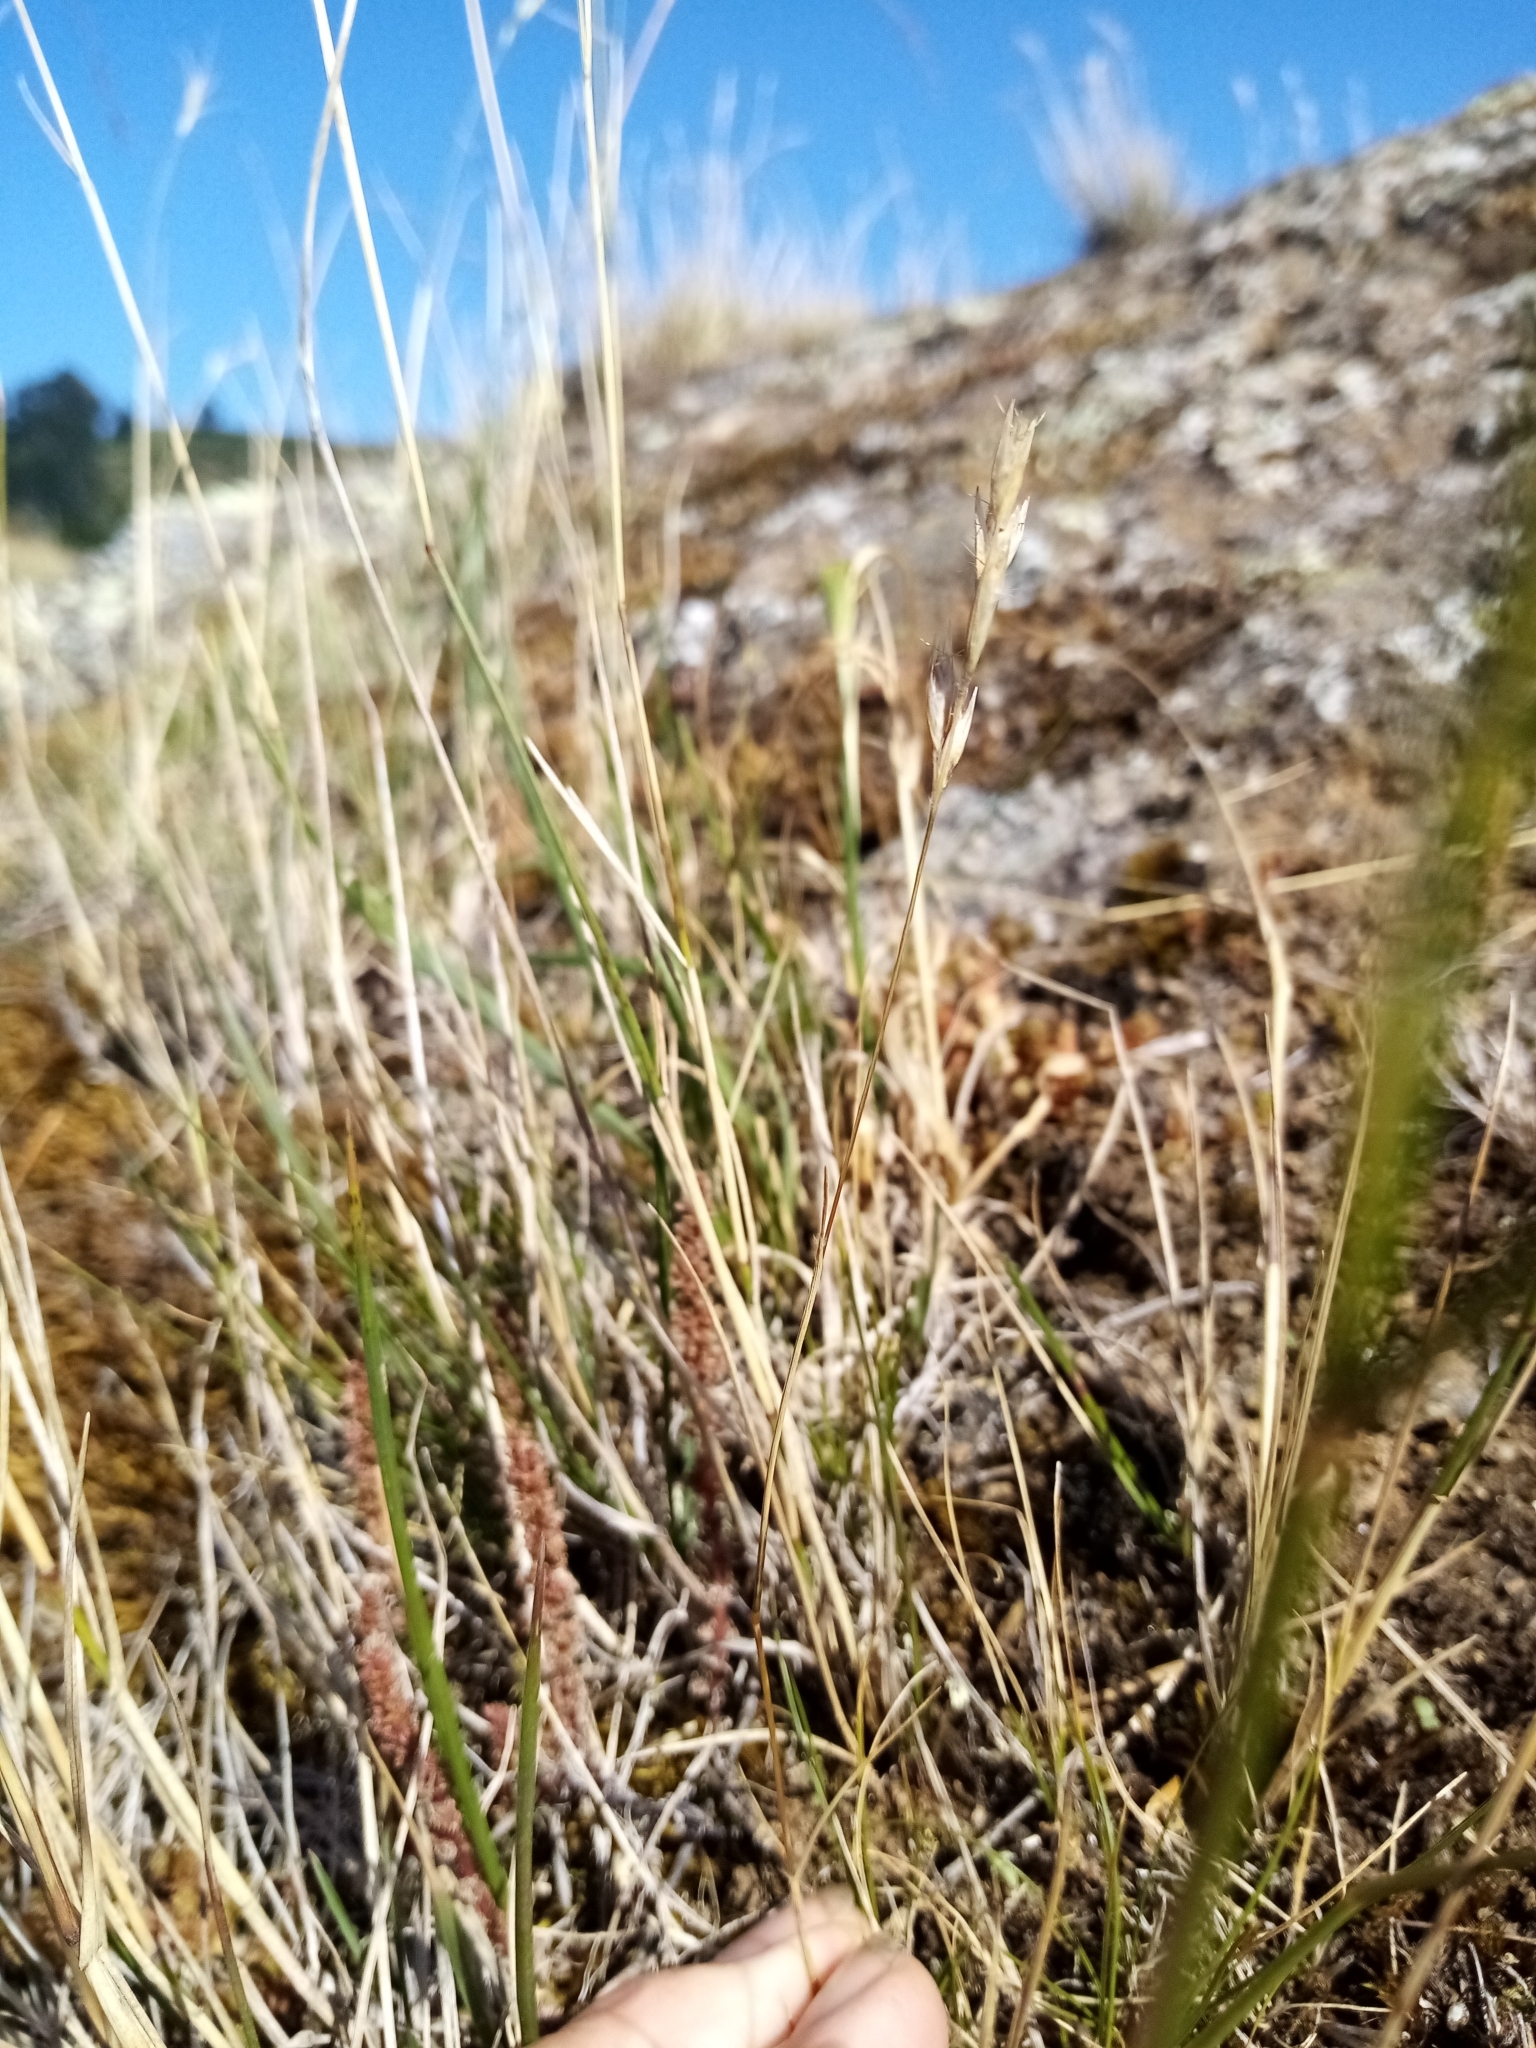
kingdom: Plantae
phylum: Tracheophyta
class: Liliopsida
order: Poales
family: Poaceae
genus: Rytidosperma
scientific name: Rytidosperma maculatum
